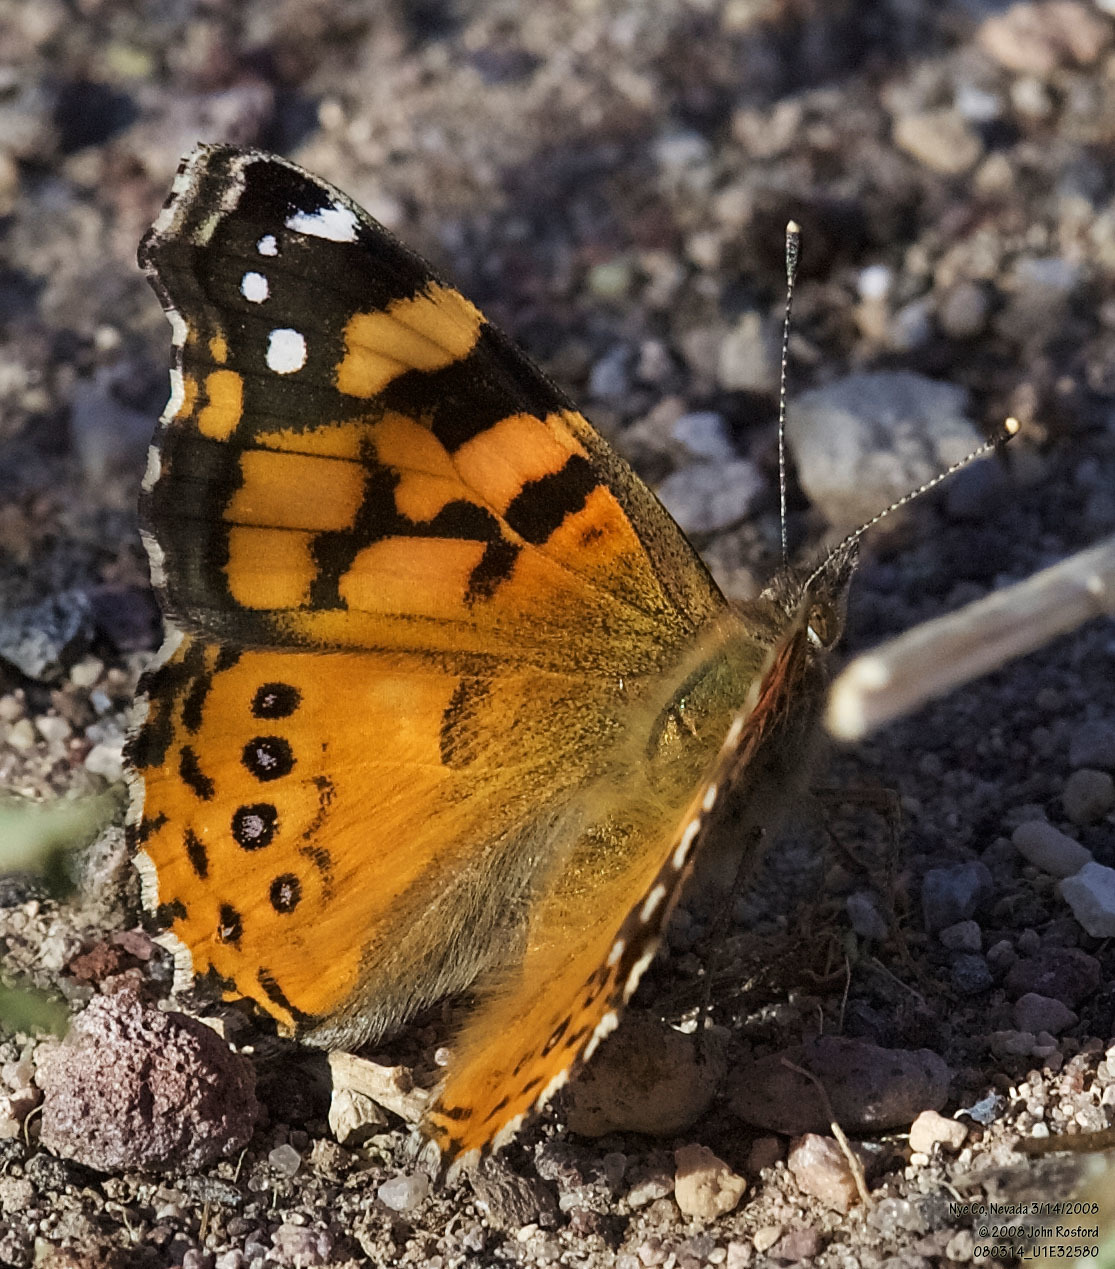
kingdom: Animalia
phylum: Arthropoda
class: Insecta
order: Lepidoptera
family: Nymphalidae
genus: Vanessa
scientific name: Vanessa annabella
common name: West coast lady
